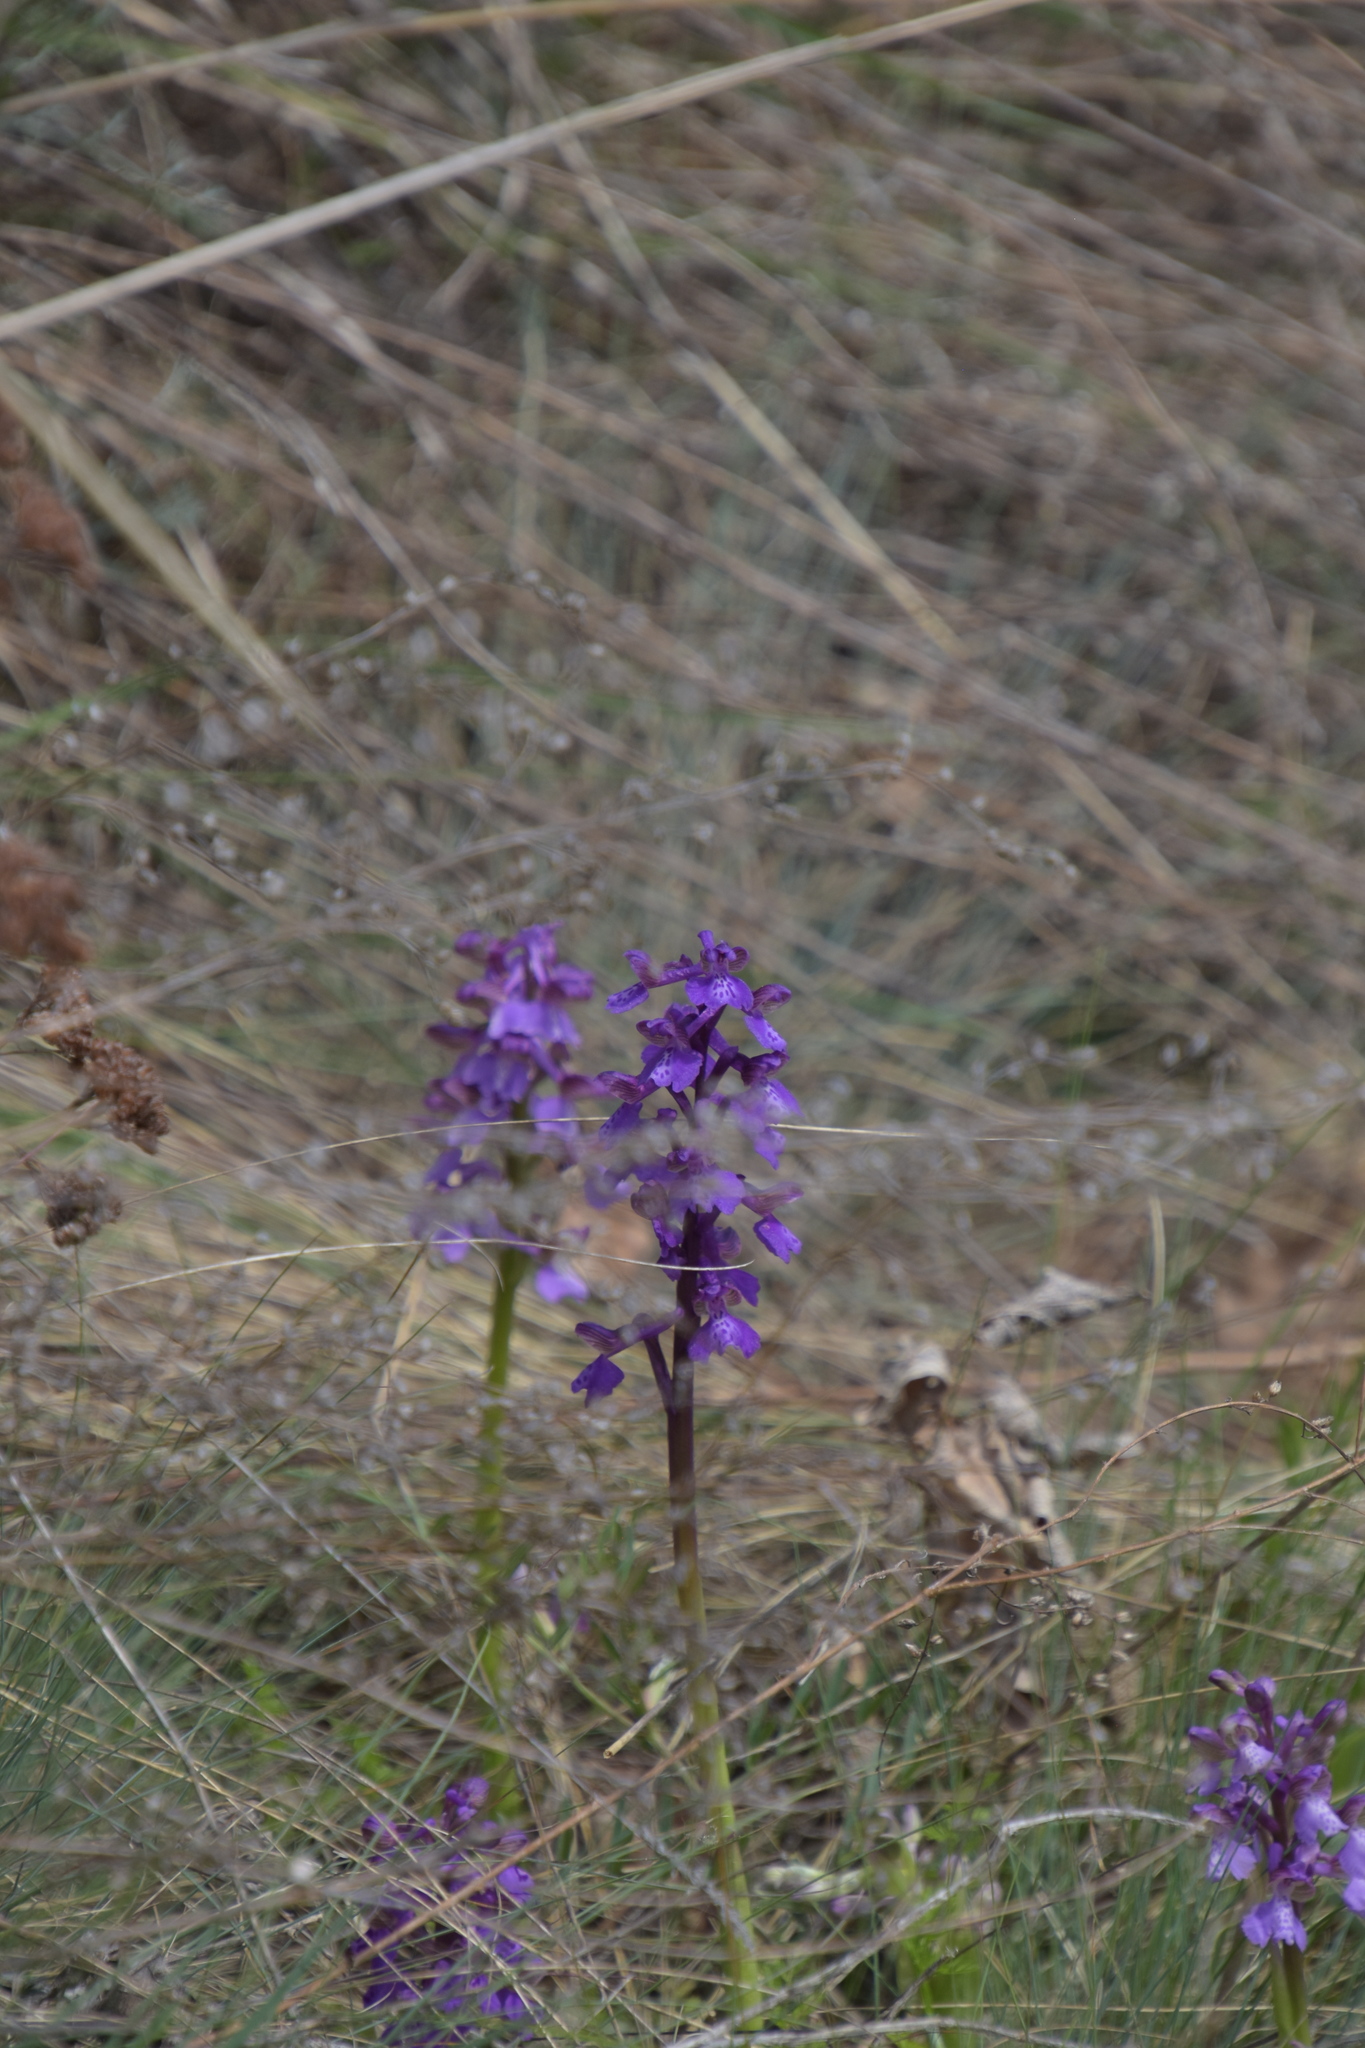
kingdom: Plantae
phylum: Tracheophyta
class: Liliopsida
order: Asparagales
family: Orchidaceae
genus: Anacamptis
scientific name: Anacamptis morio
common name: Green-winged orchid
